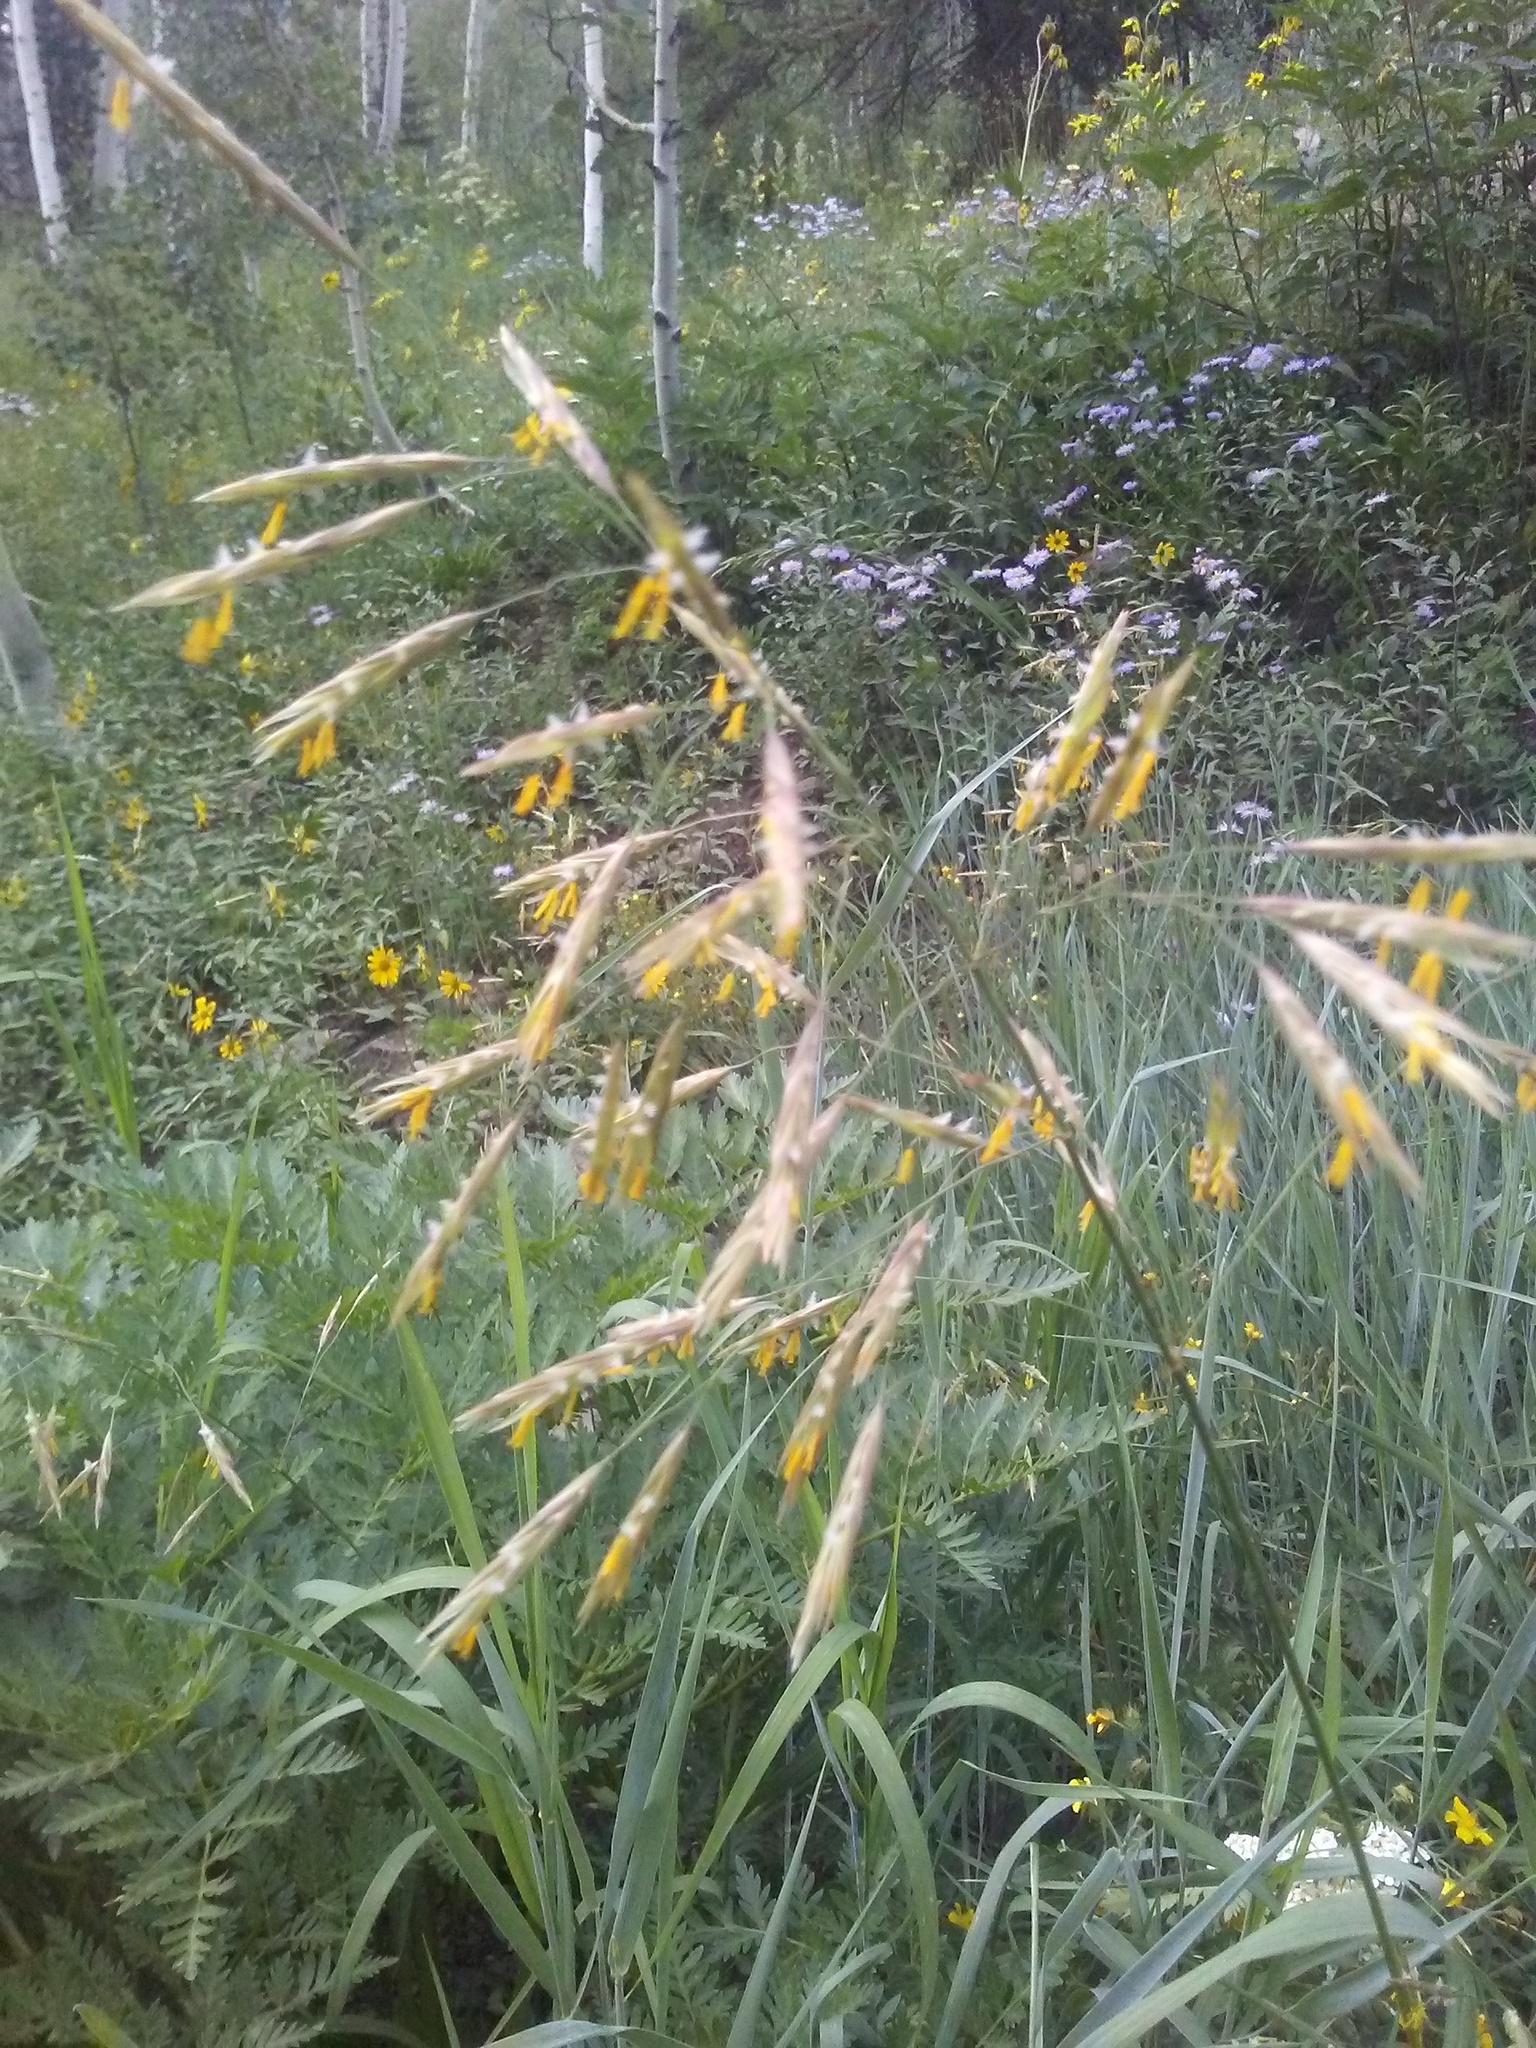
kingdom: Plantae
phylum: Tracheophyta
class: Liliopsida
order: Poales
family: Poaceae
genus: Bromus
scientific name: Bromus inermis
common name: Smooth brome
